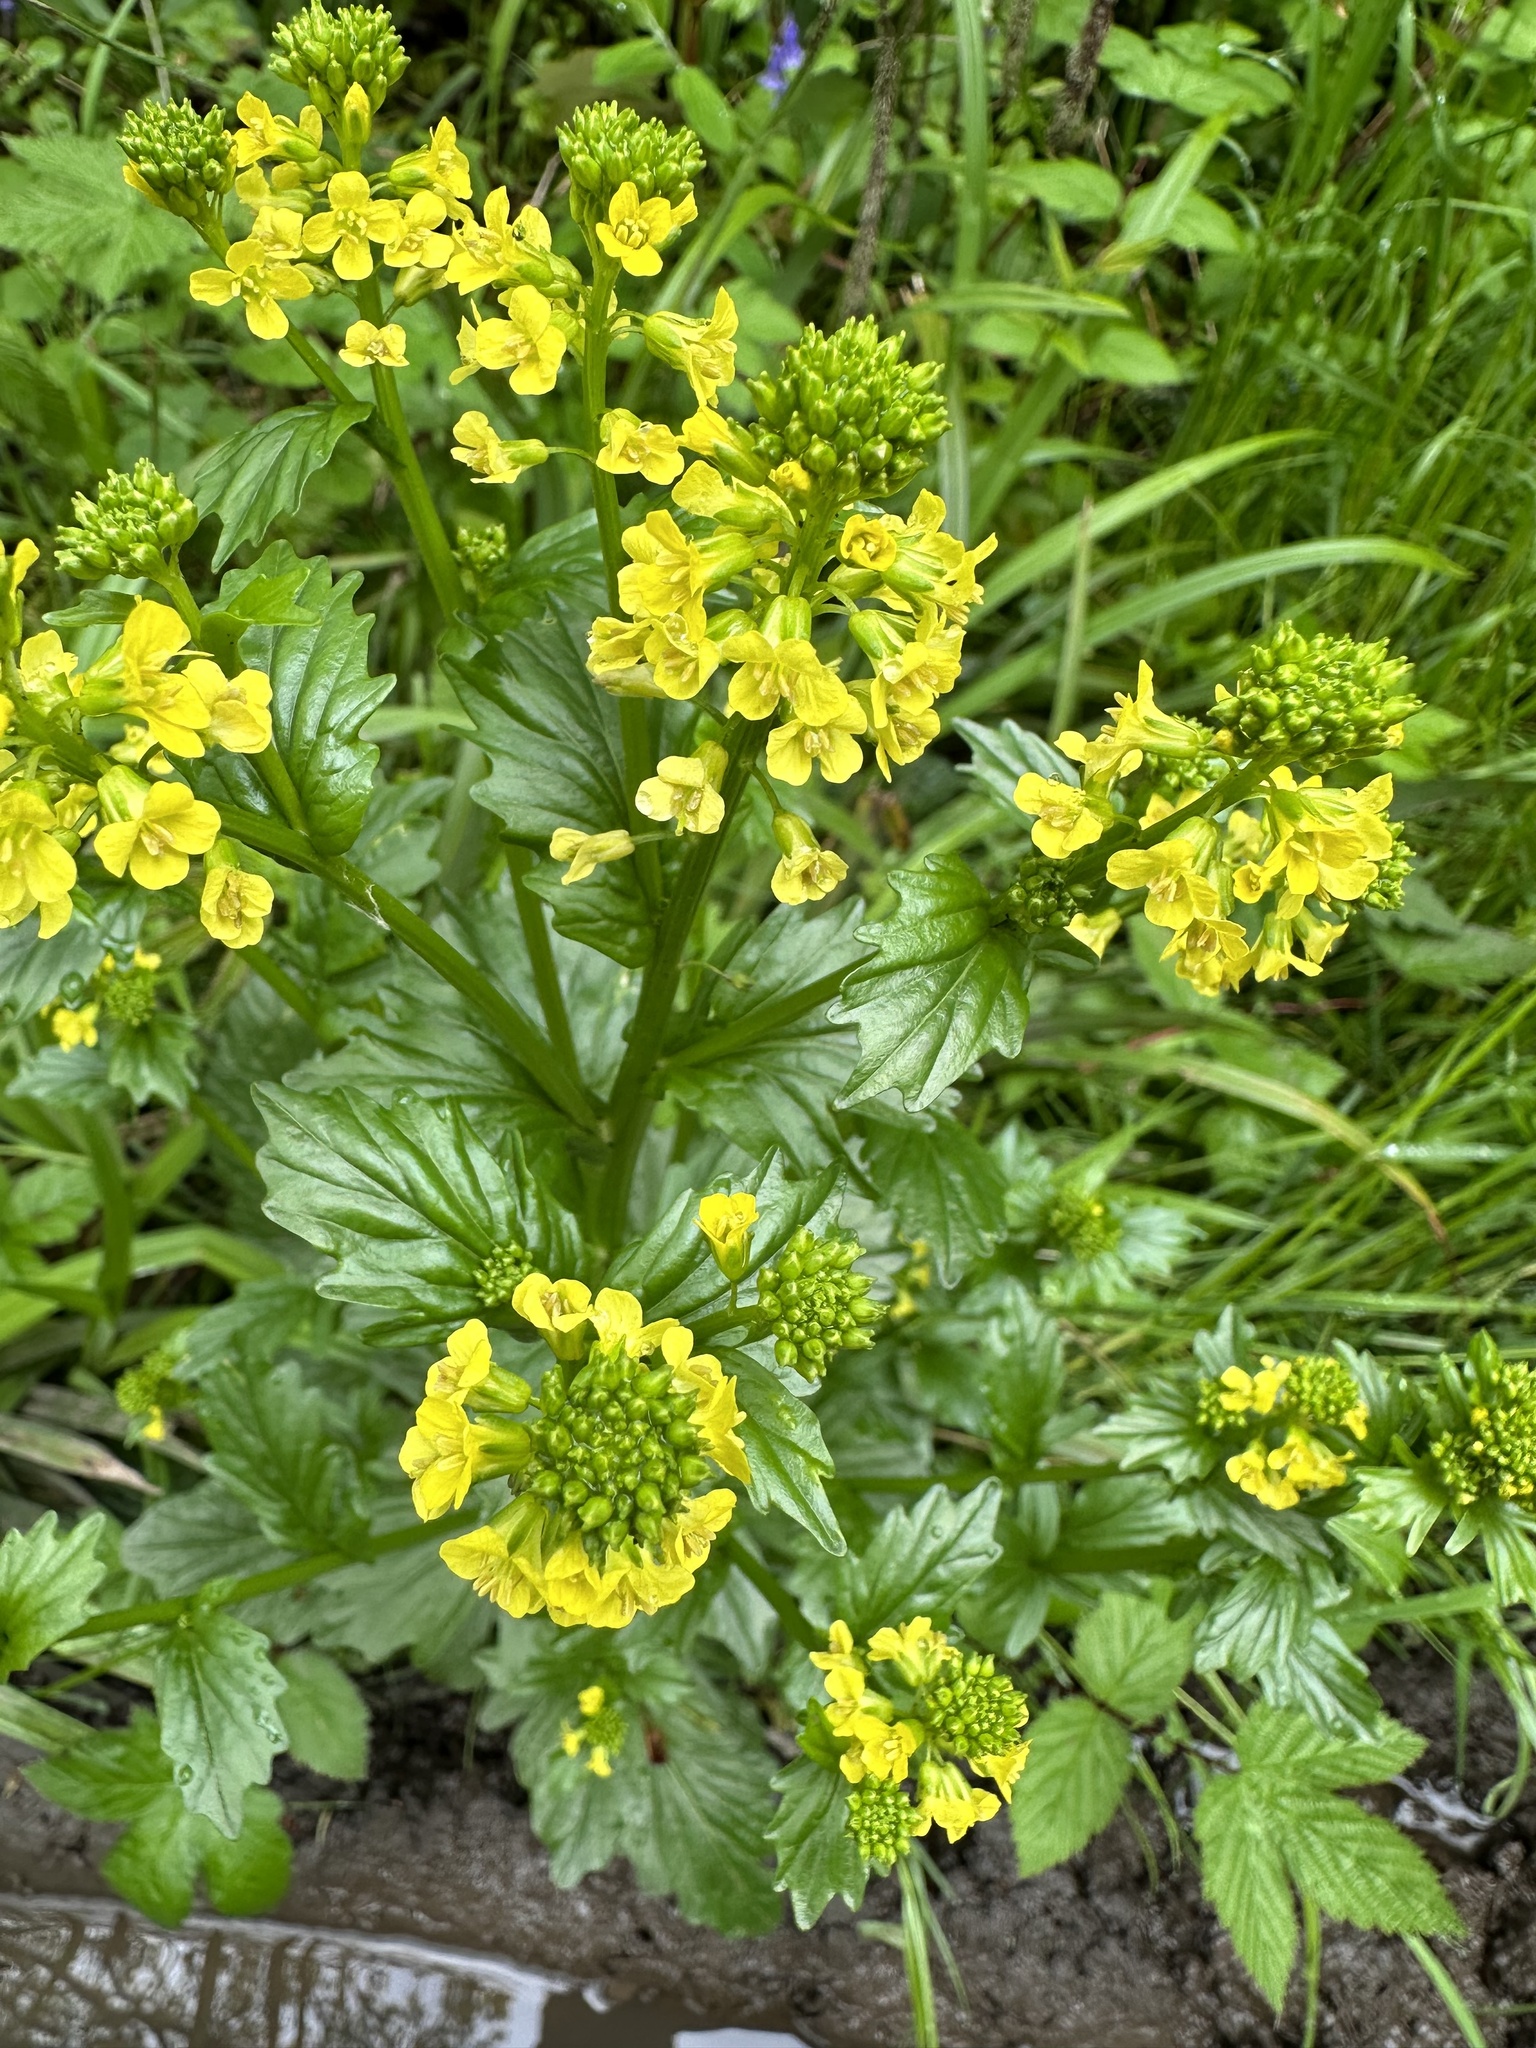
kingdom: Plantae
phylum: Tracheophyta
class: Magnoliopsida
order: Brassicales
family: Brassicaceae
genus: Barbarea
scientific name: Barbarea vulgaris
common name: Cressy-greens
